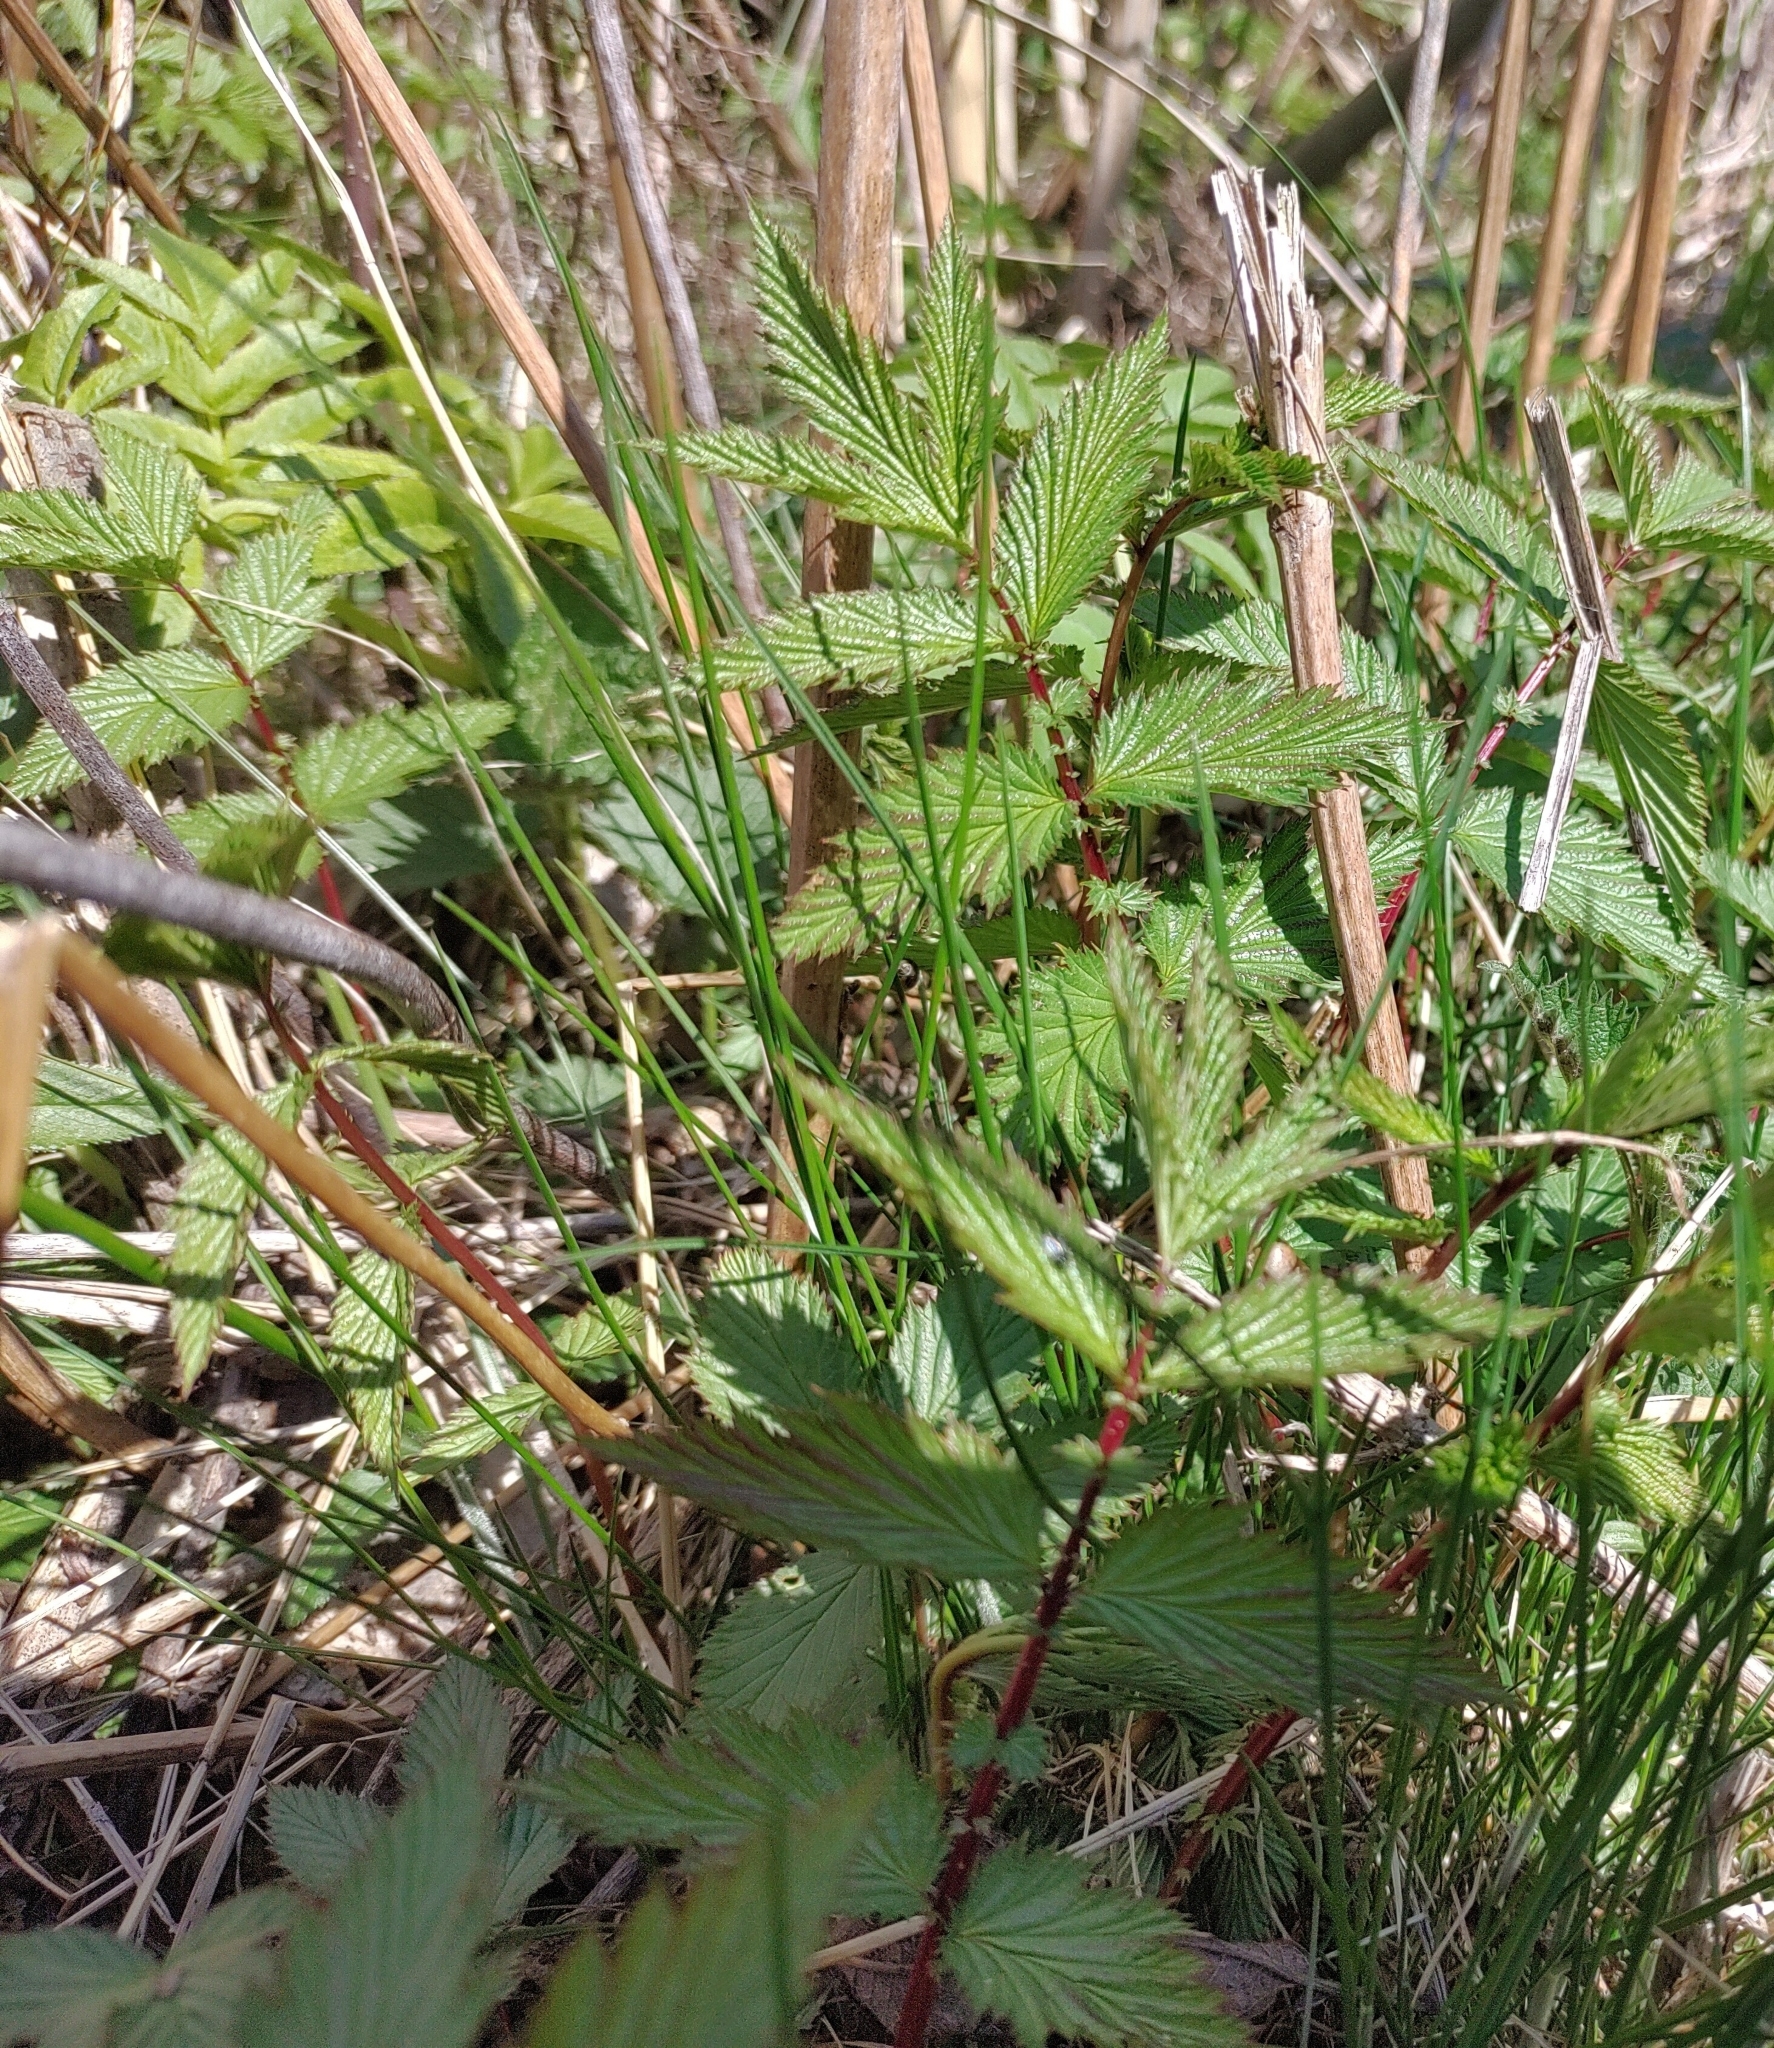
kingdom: Plantae
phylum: Tracheophyta
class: Magnoliopsida
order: Rosales
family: Rosaceae
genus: Filipendula
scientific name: Filipendula ulmaria
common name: Meadowsweet
